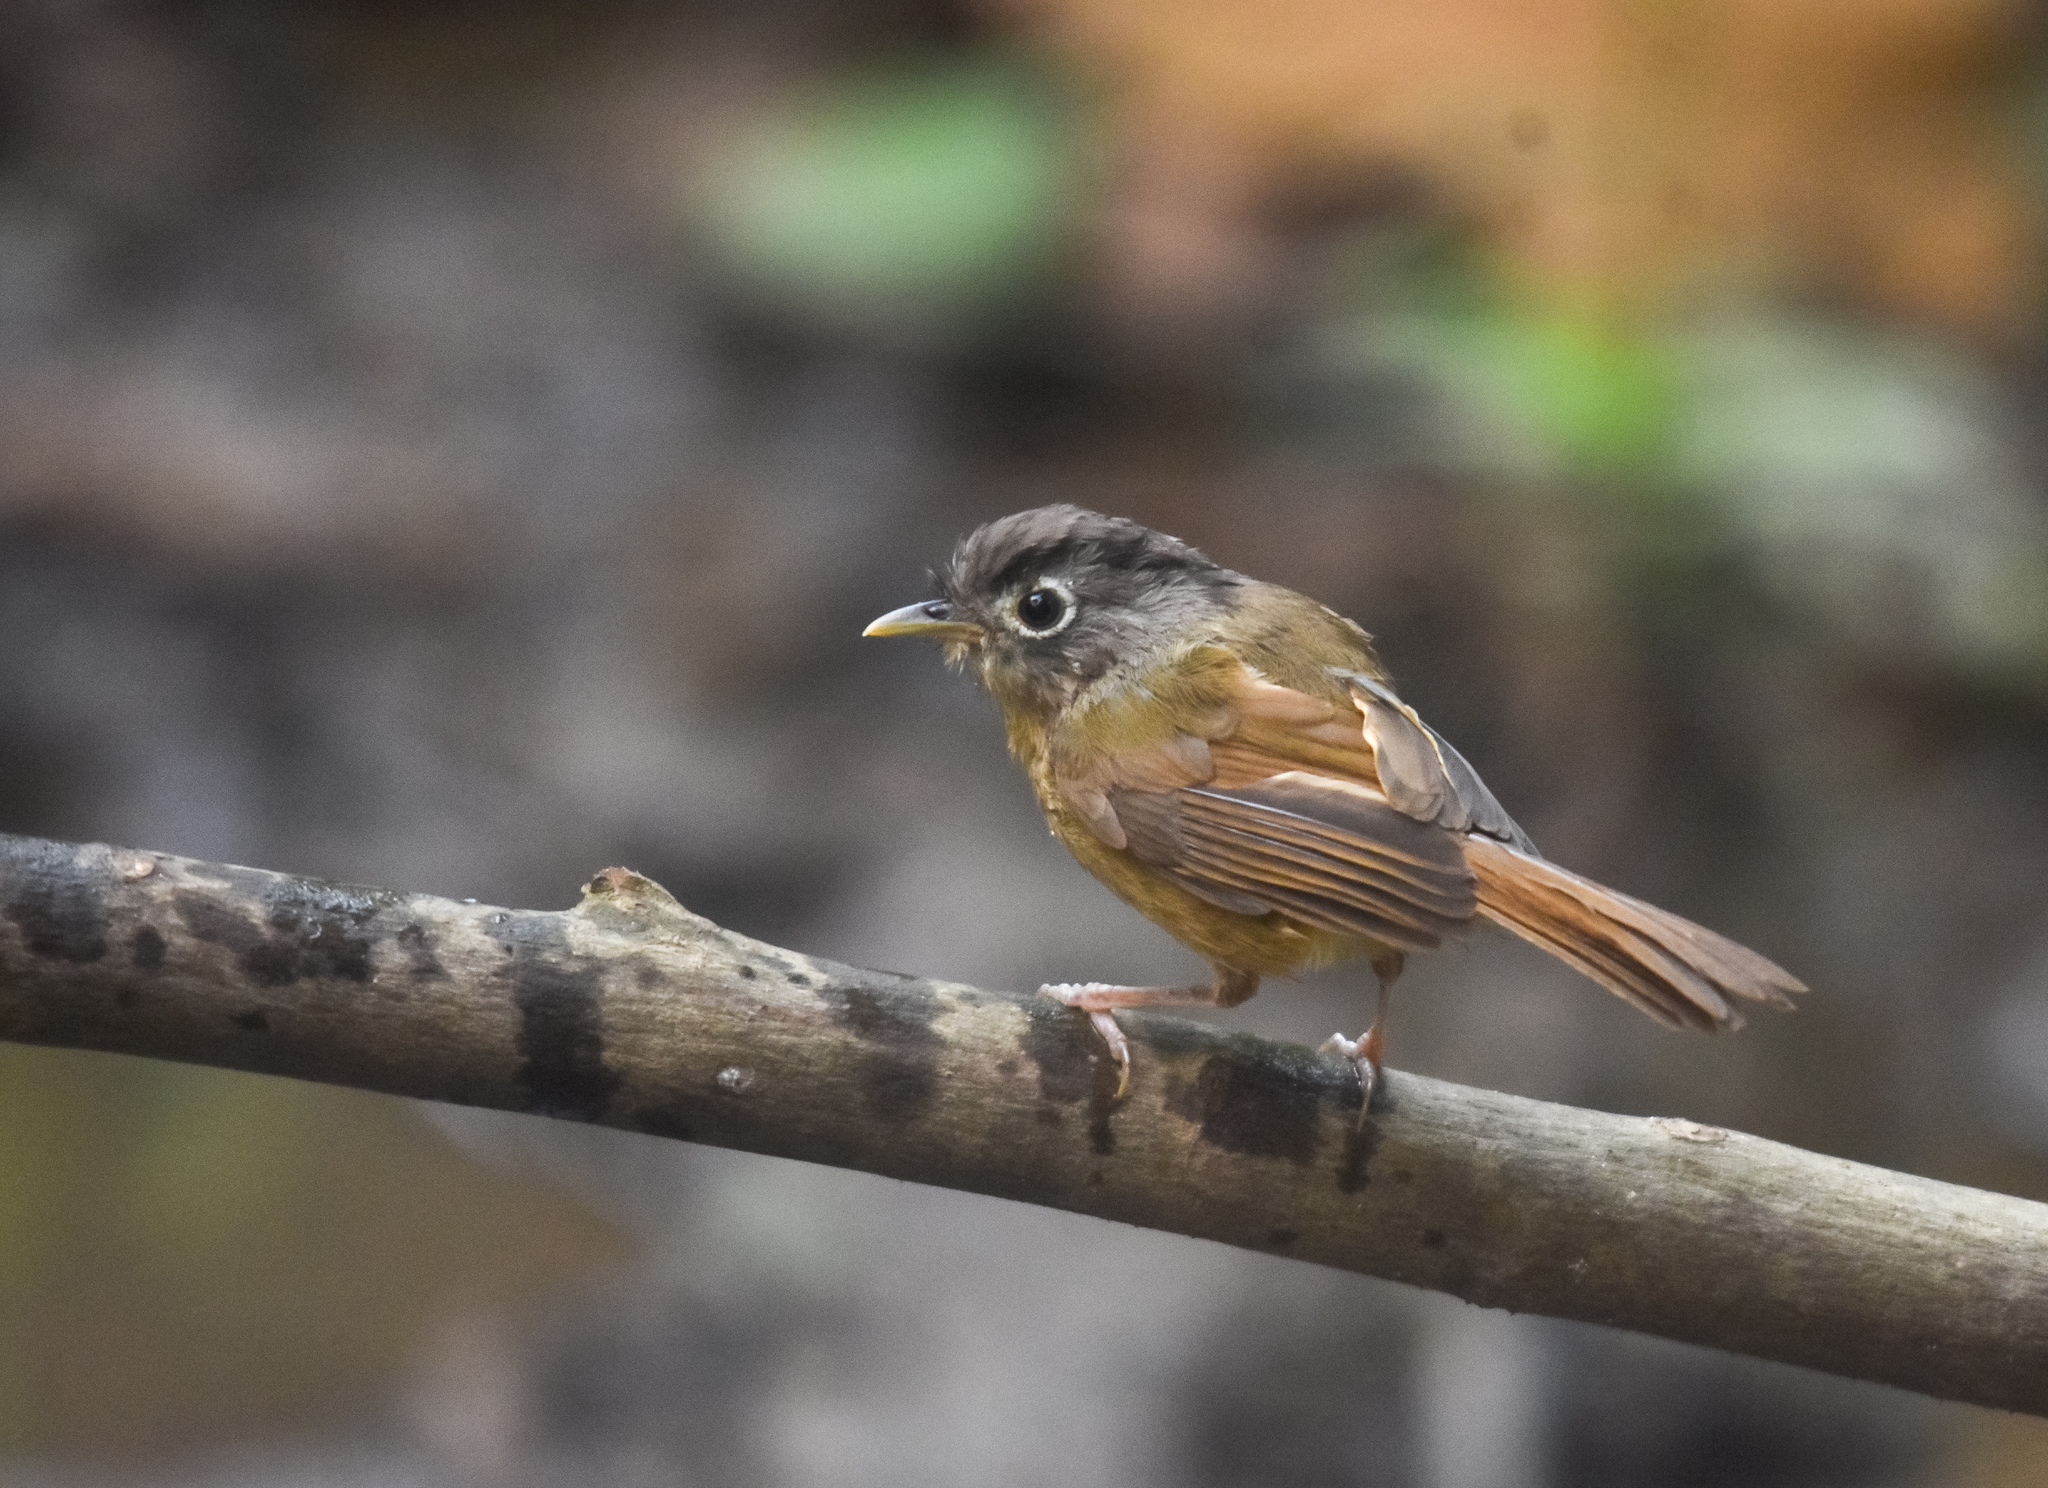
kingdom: Animalia
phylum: Chordata
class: Aves
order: Passeriformes
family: Pellorneidae
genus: Alcippe
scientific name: Alcippe nipalensis
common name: Nepal fulvetta
